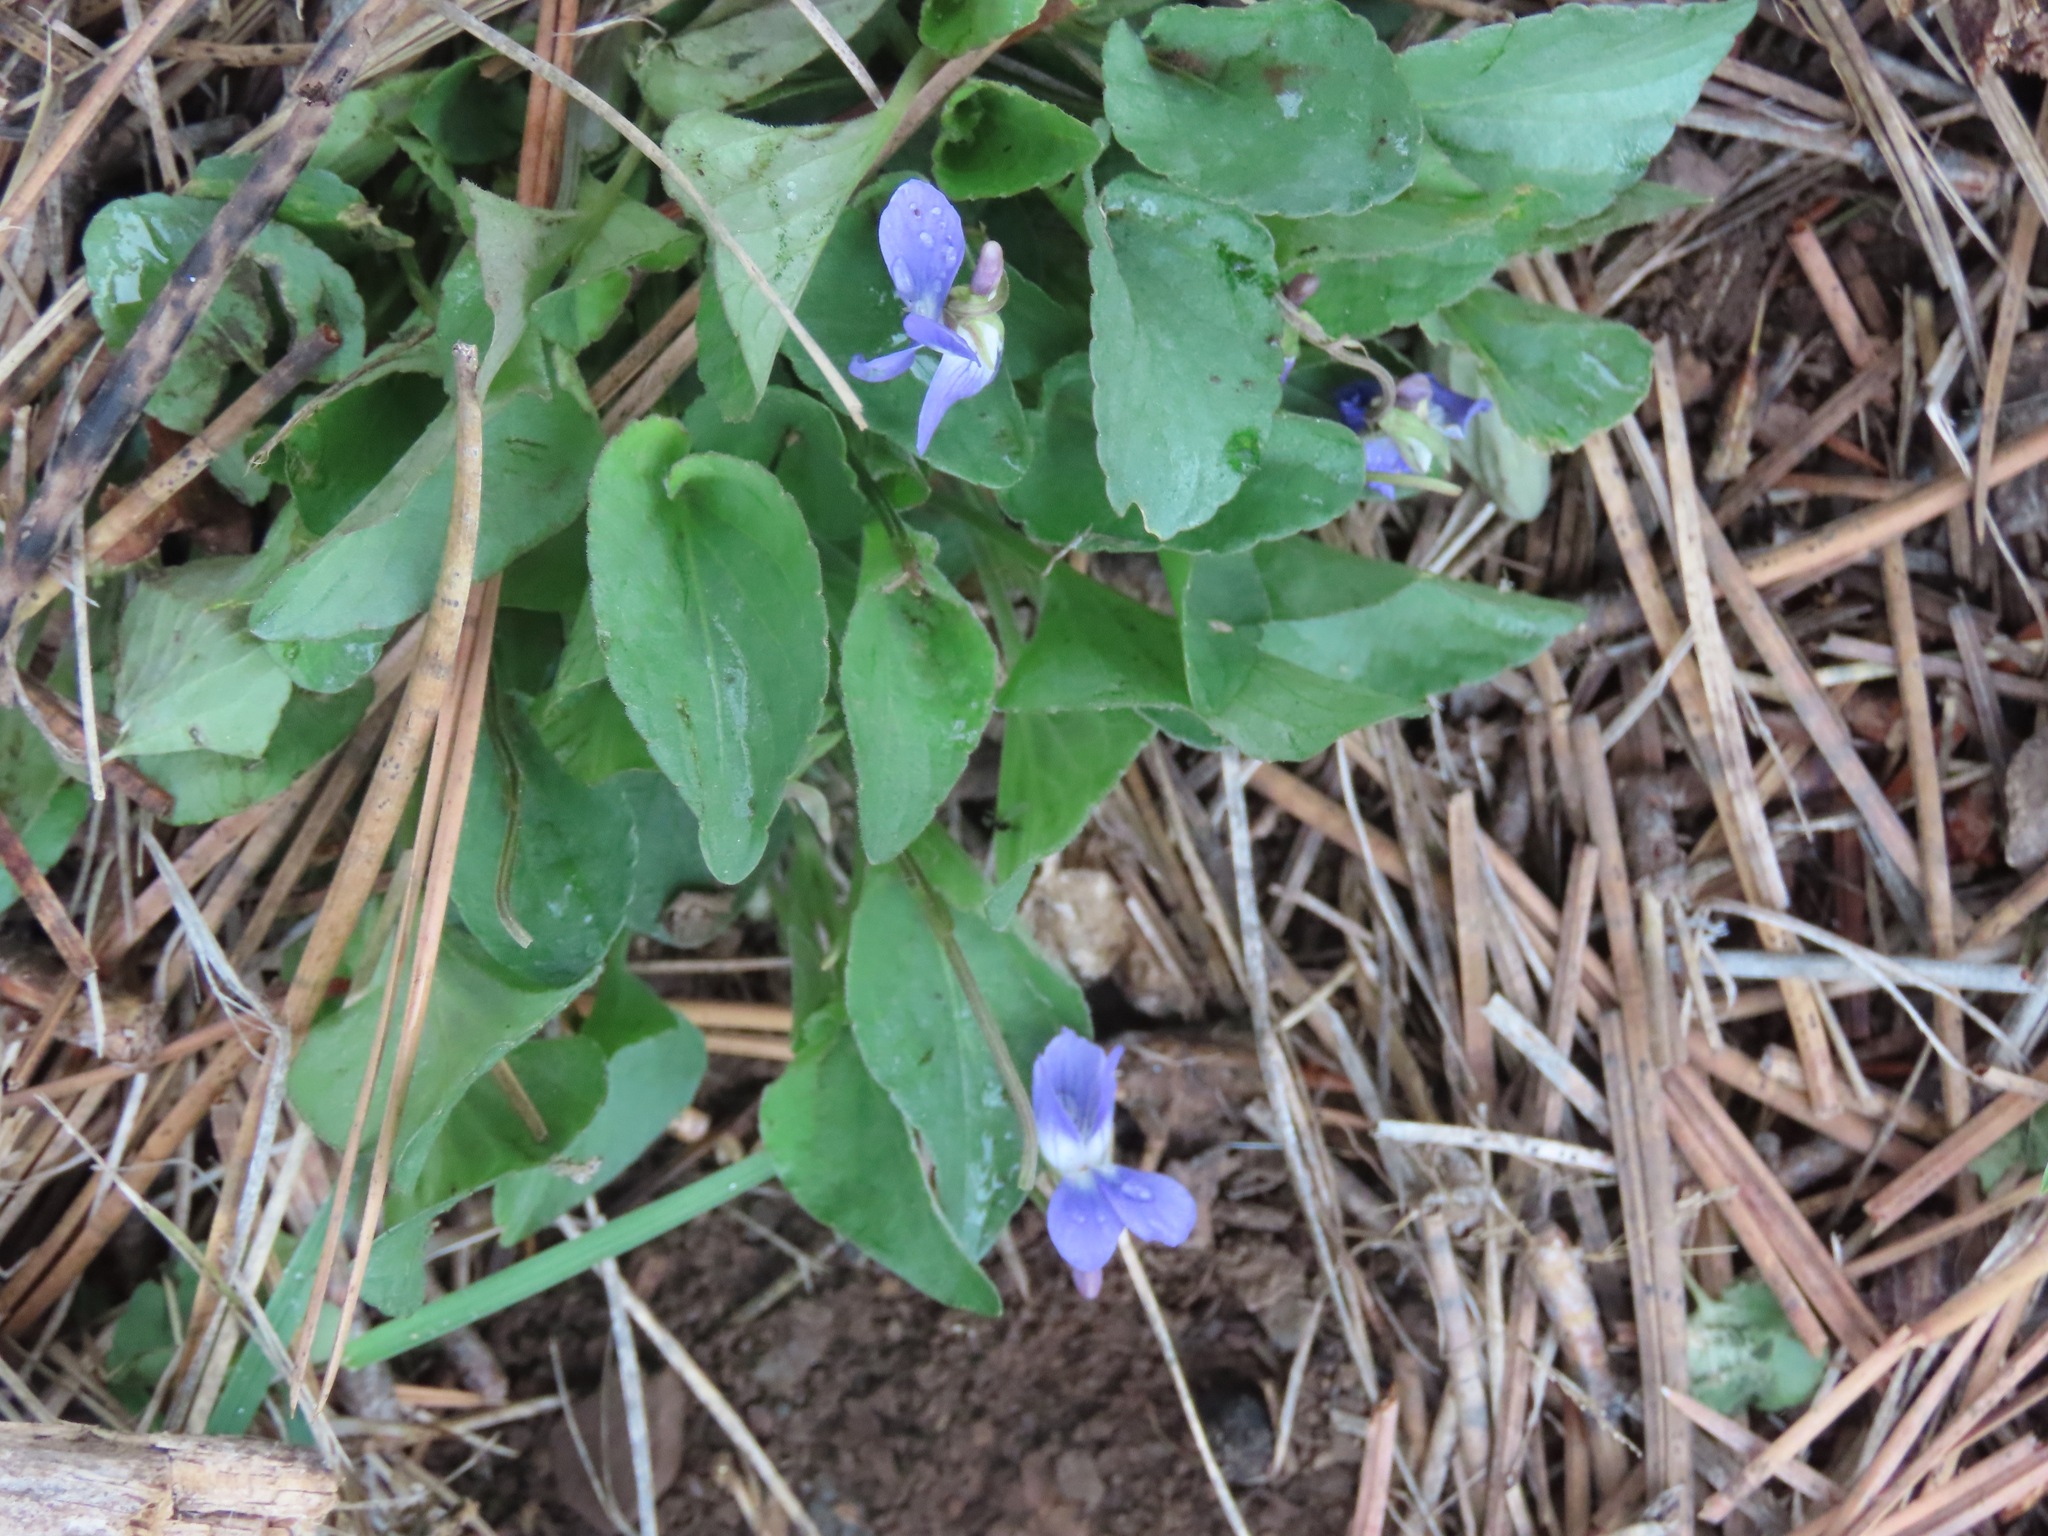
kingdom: Plantae
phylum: Tracheophyta
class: Magnoliopsida
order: Malpighiales
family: Violaceae
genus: Viola
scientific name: Viola adunca
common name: Sand violet
